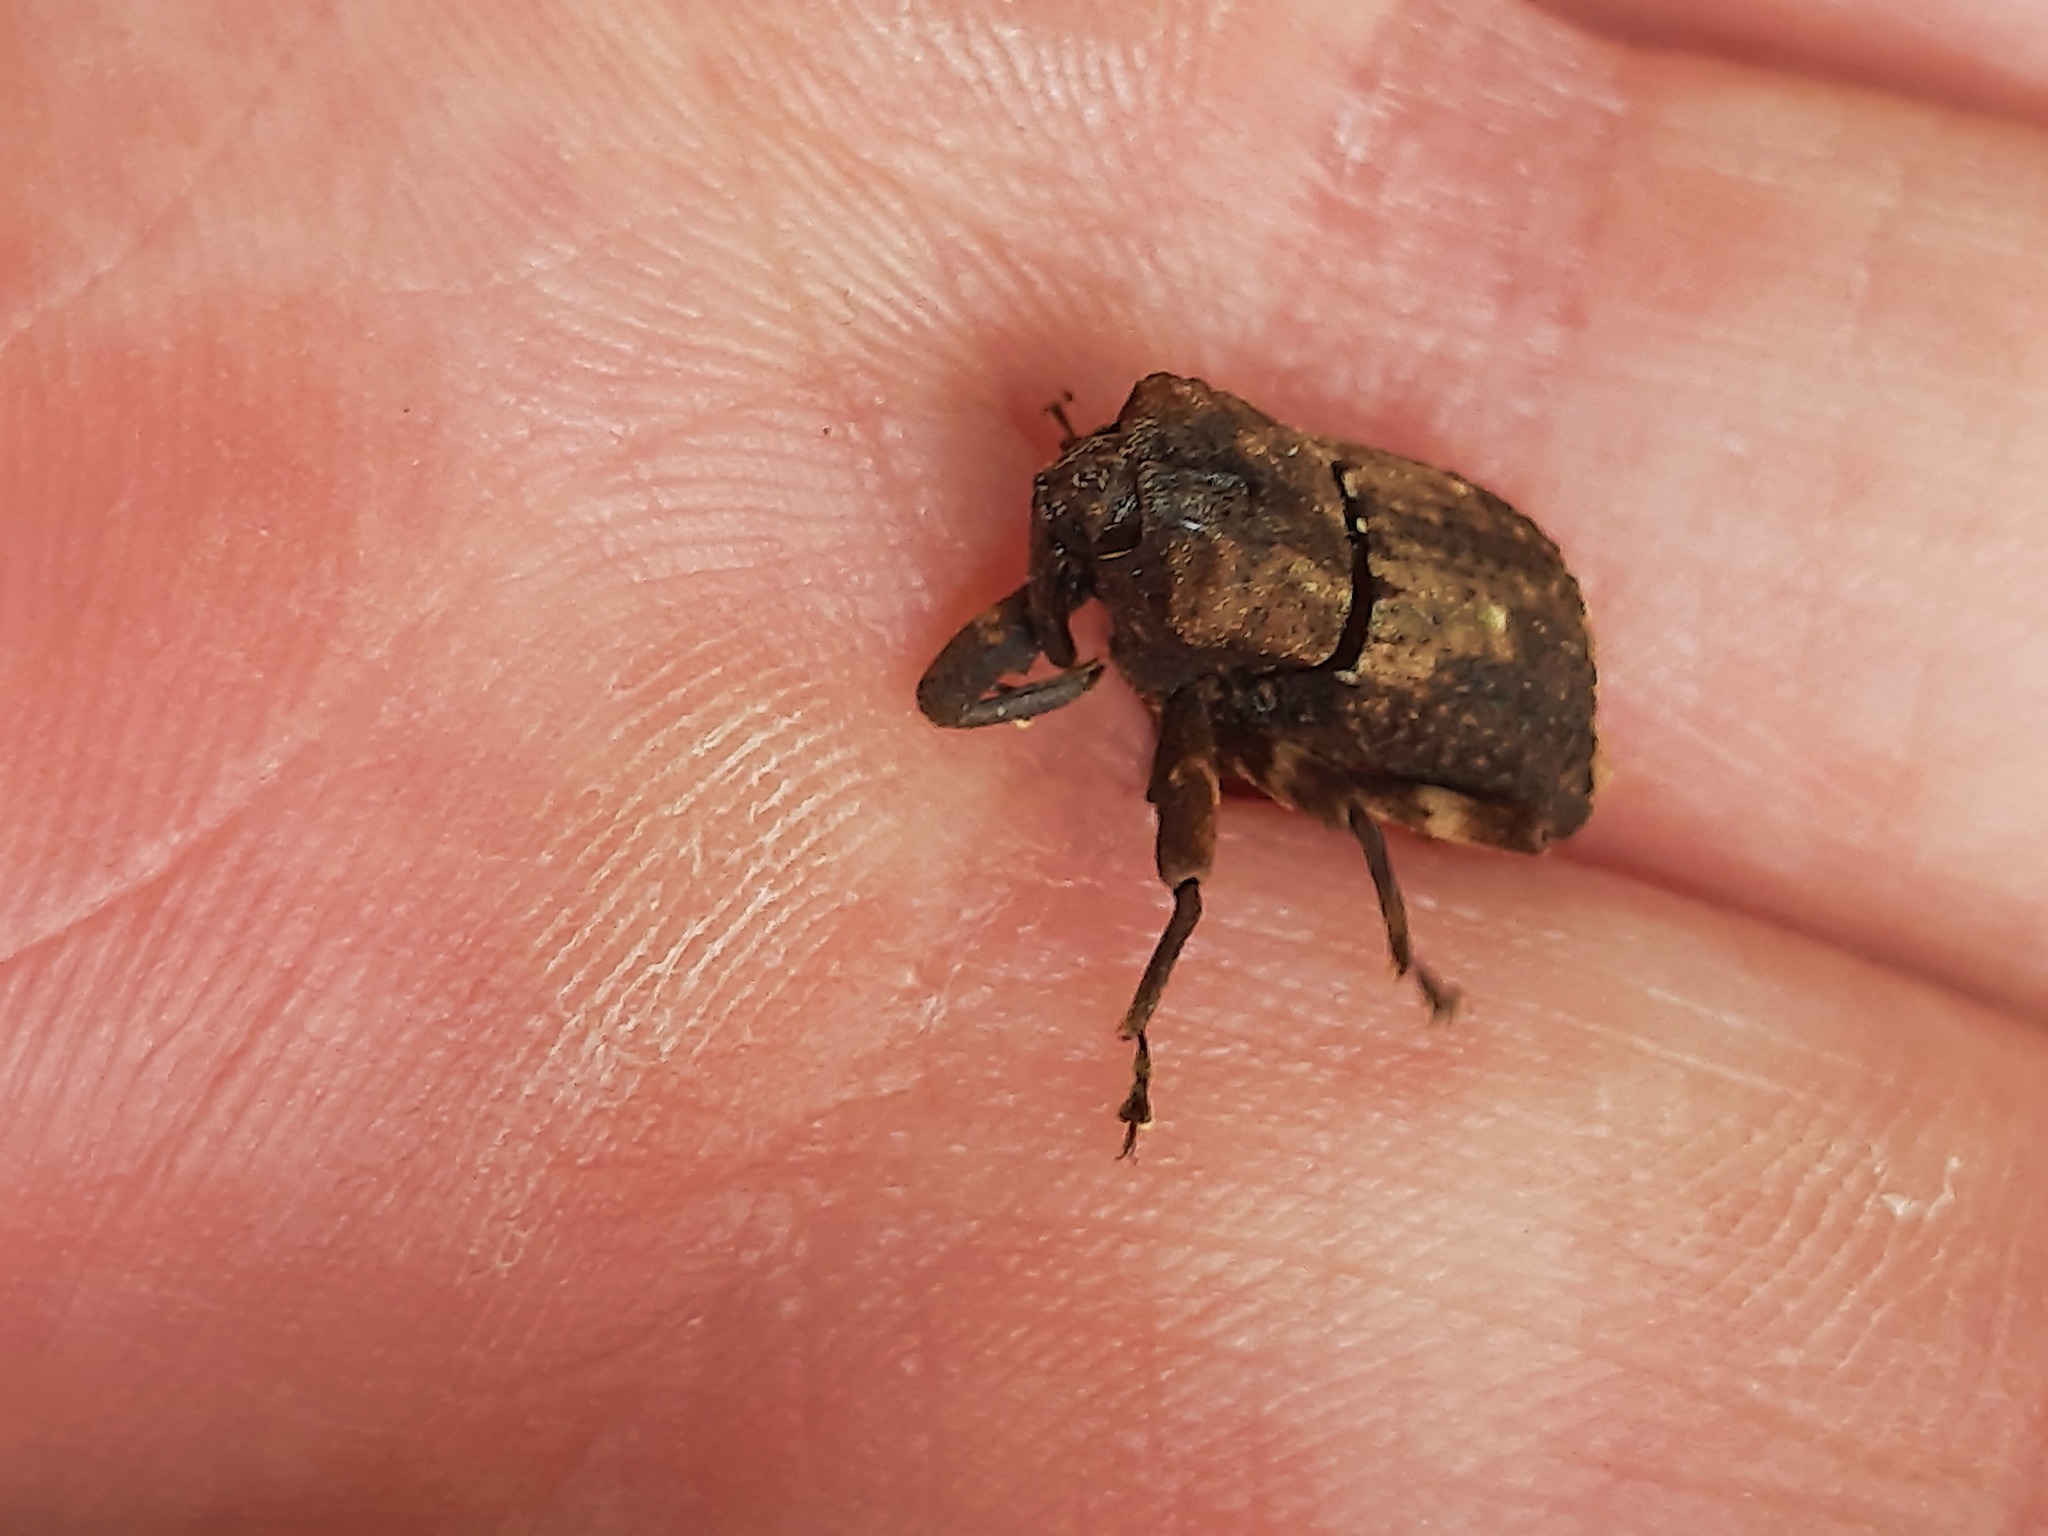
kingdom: Animalia
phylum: Arthropoda
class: Insecta
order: Coleoptera
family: Curculionidae
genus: Ectopsis
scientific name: Ectopsis ferrugalis
